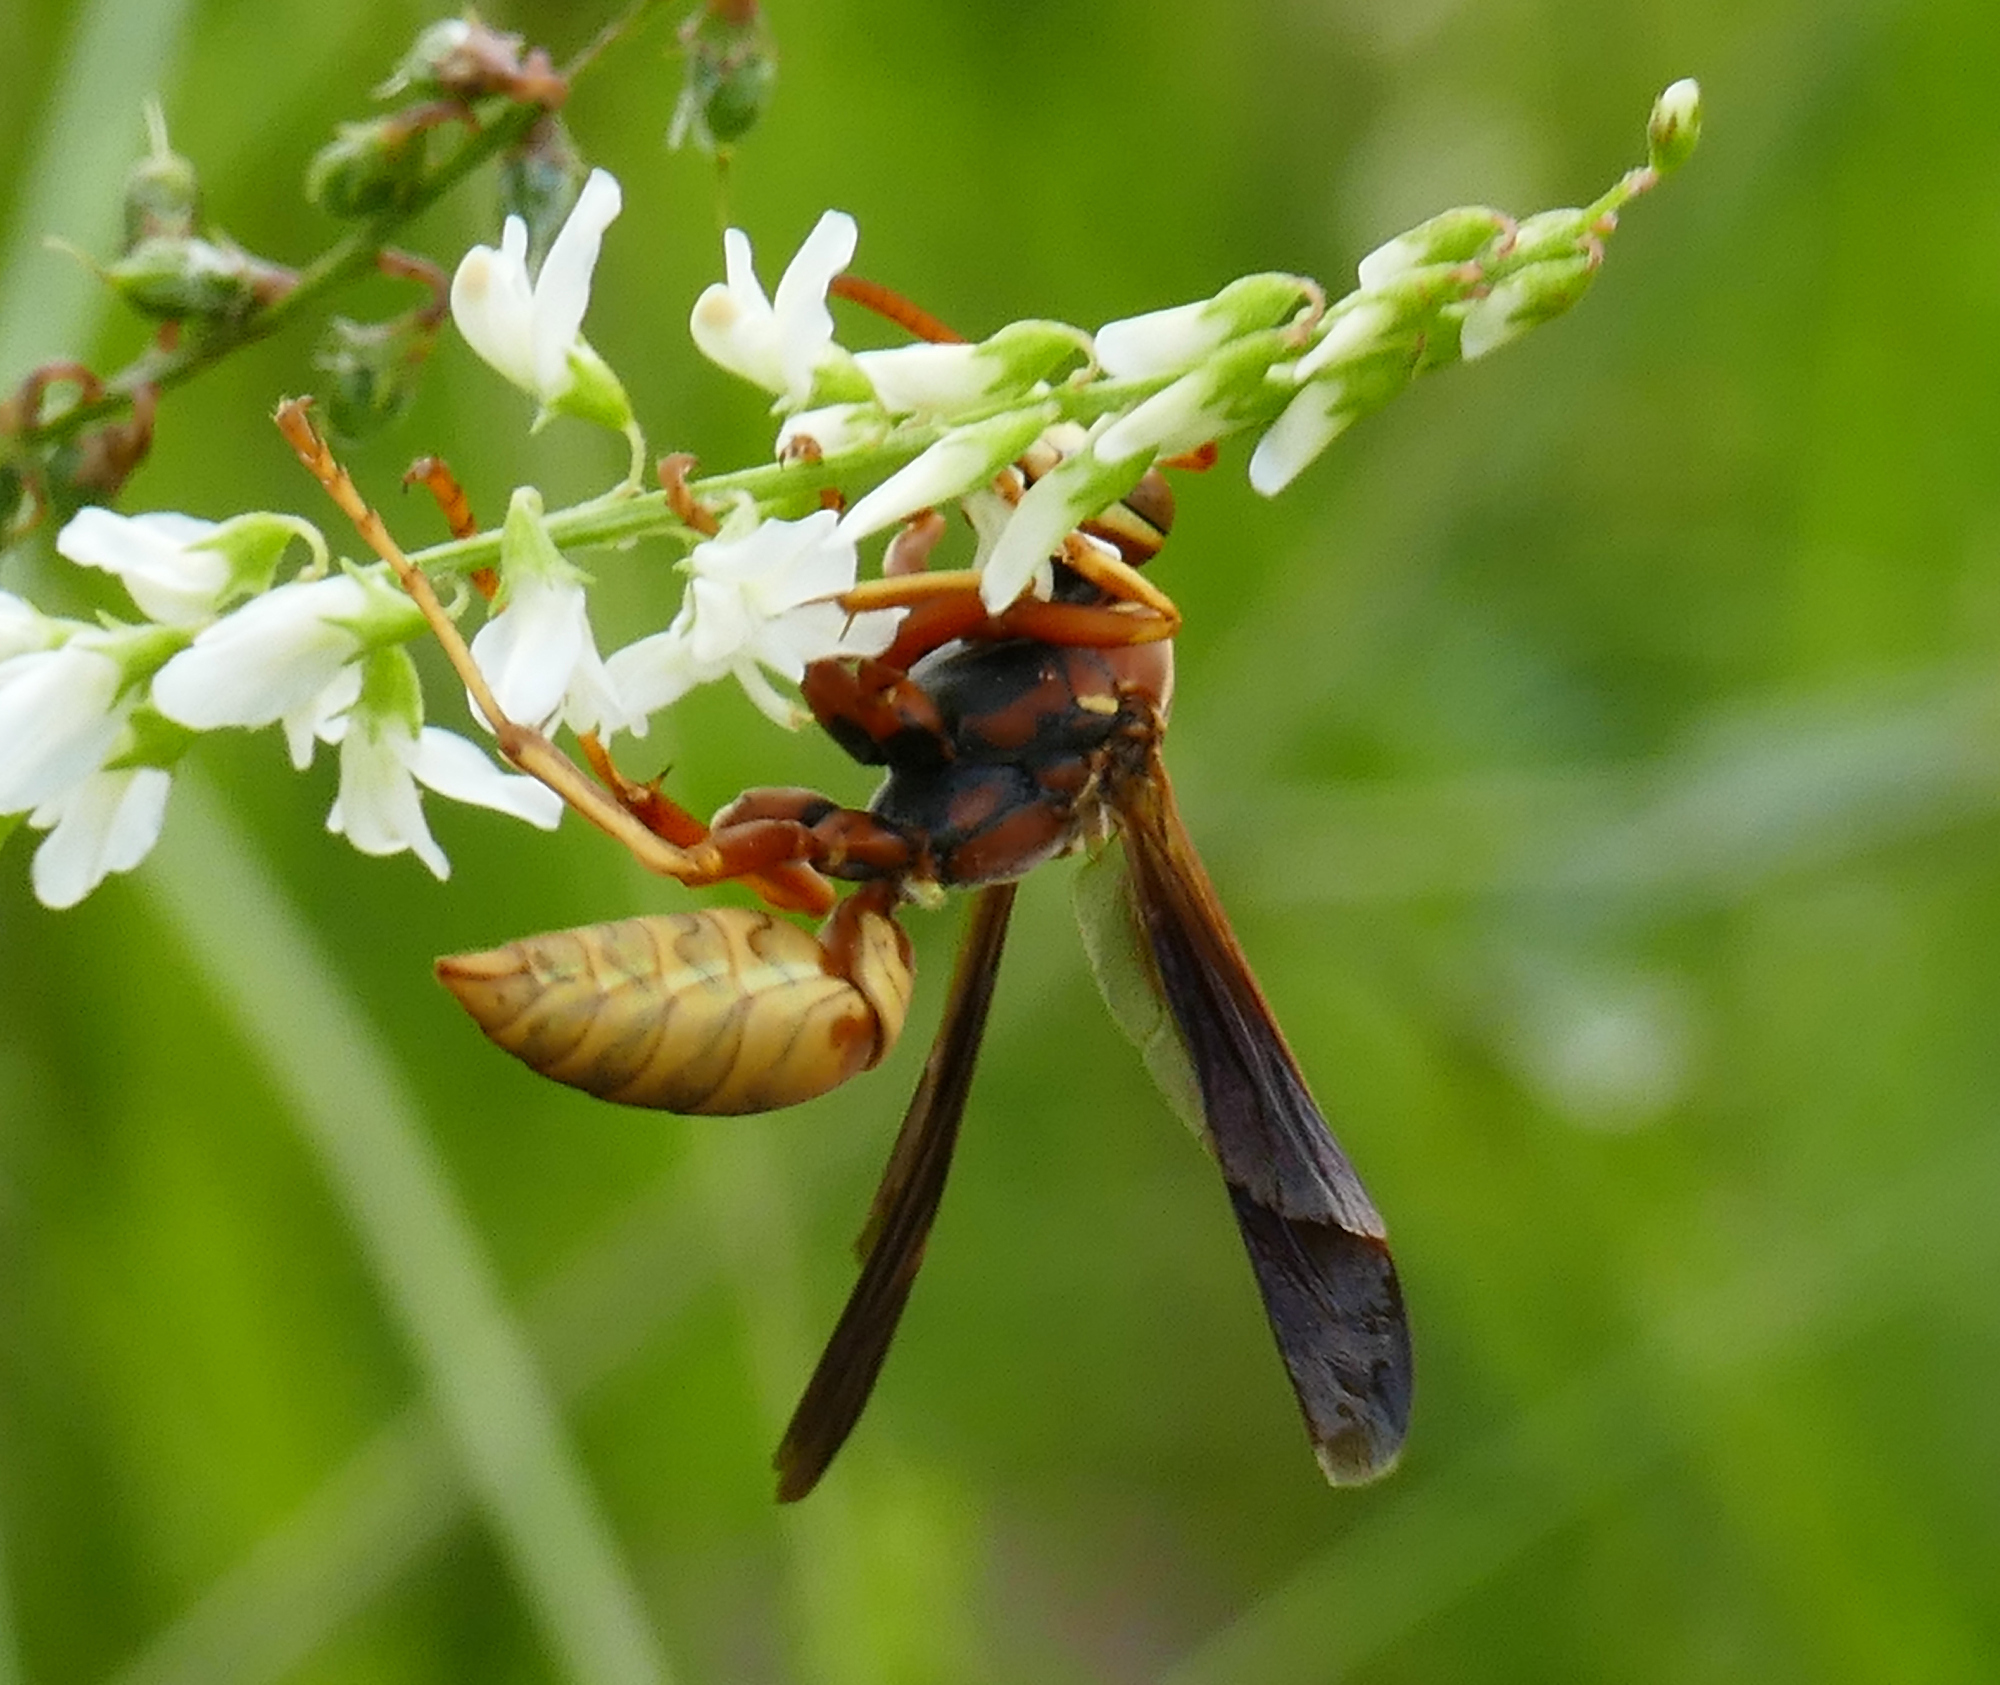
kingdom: Animalia
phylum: Arthropoda
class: Insecta
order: Hymenoptera
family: Eumenidae
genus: Polistes
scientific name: Polistes aurifer
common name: Paper wasp
